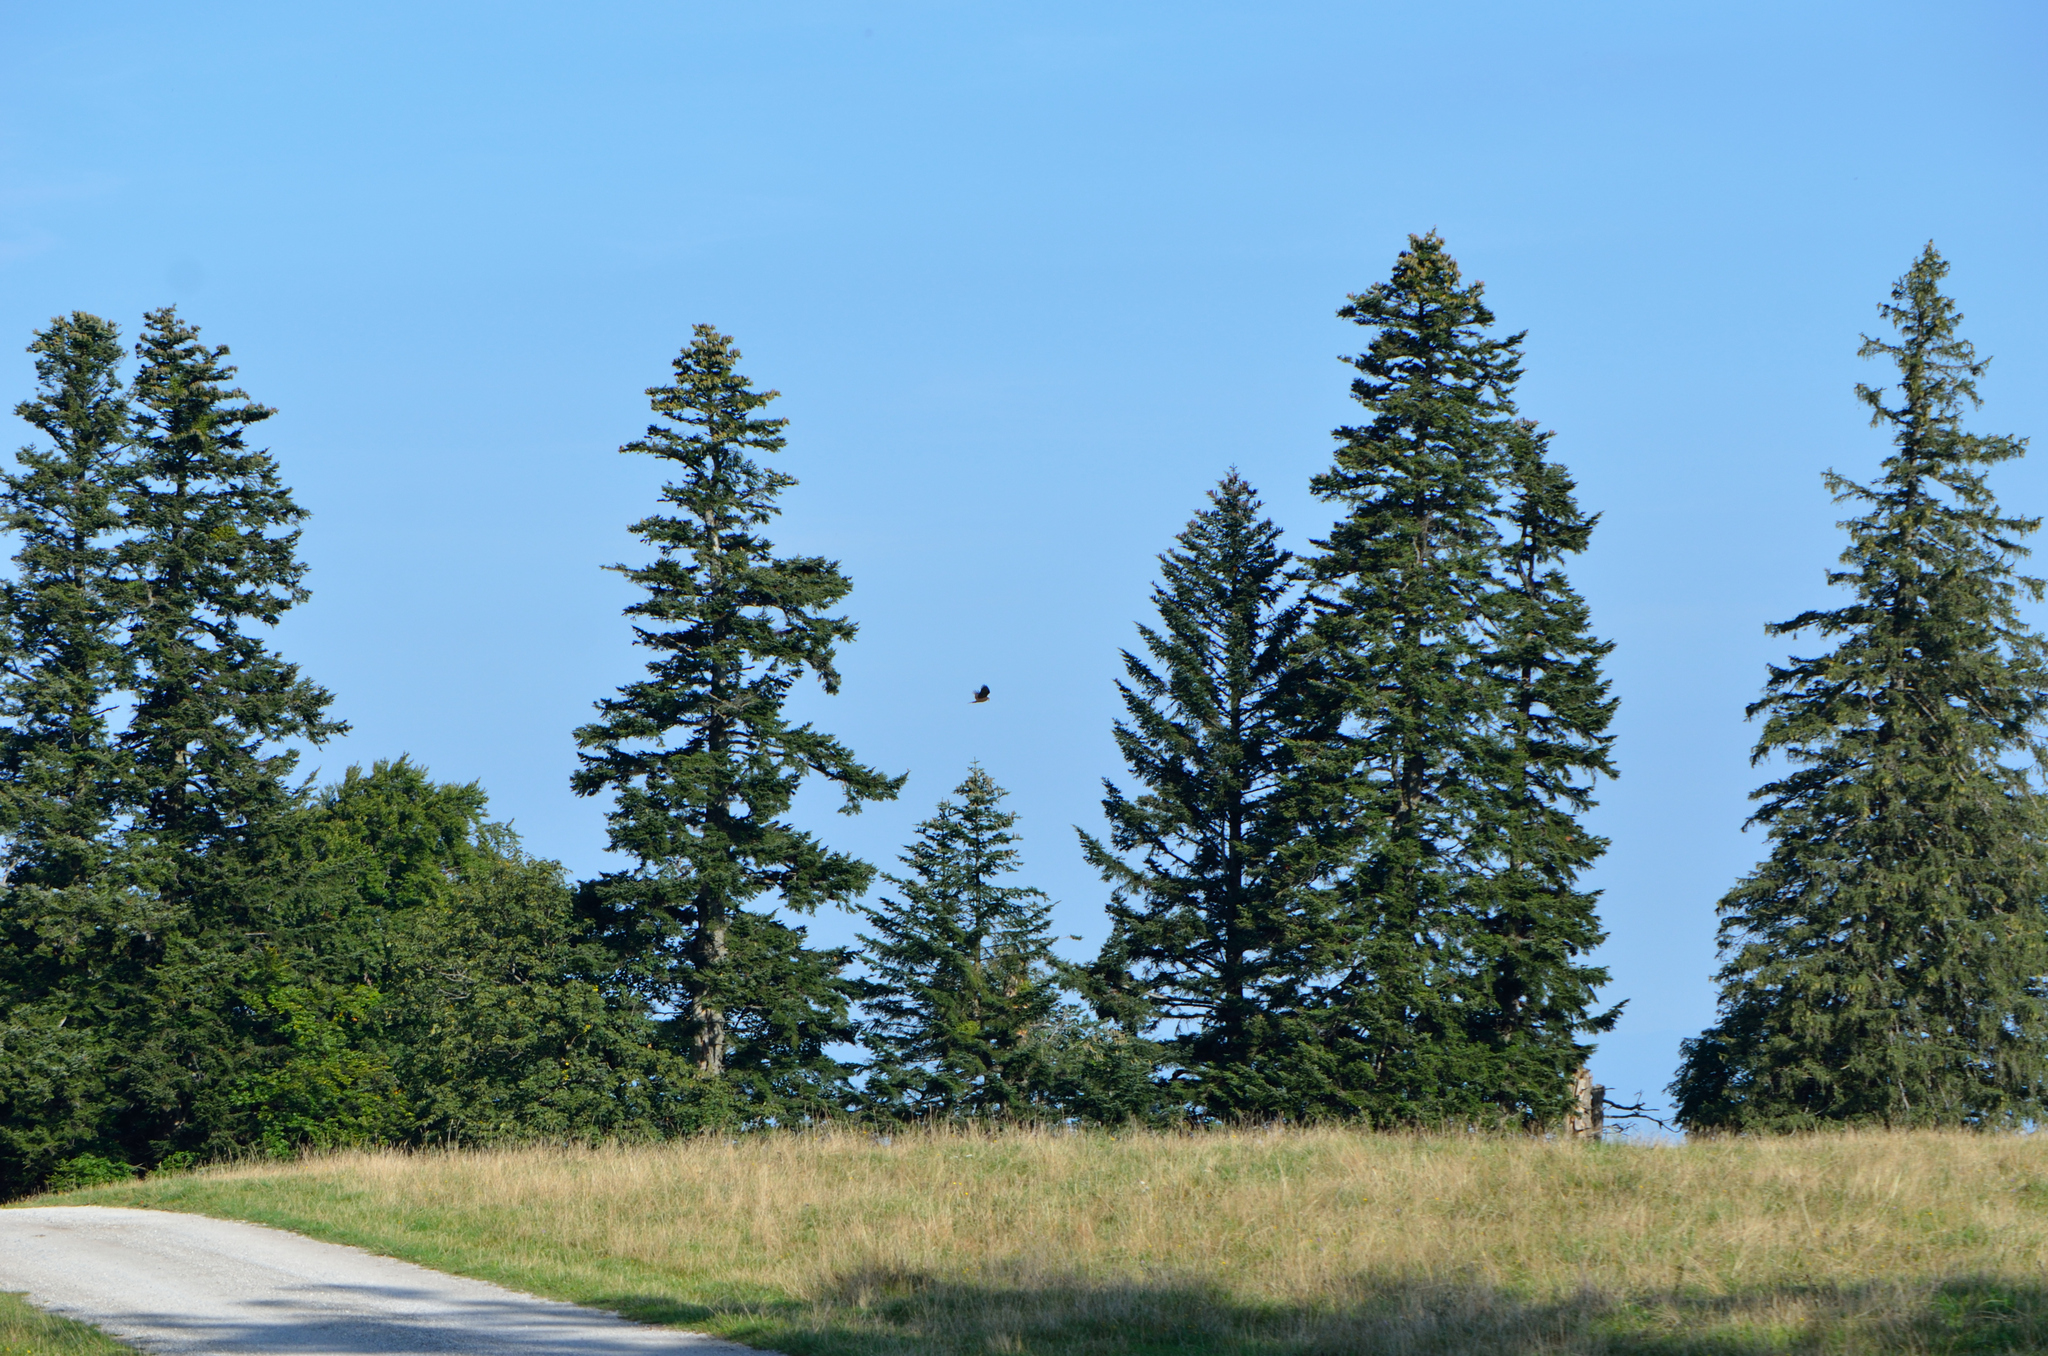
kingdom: Animalia
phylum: Chordata
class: Aves
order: Accipitriformes
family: Accipitridae
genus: Circus
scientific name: Circus aeruginosus
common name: Western marsh harrier
